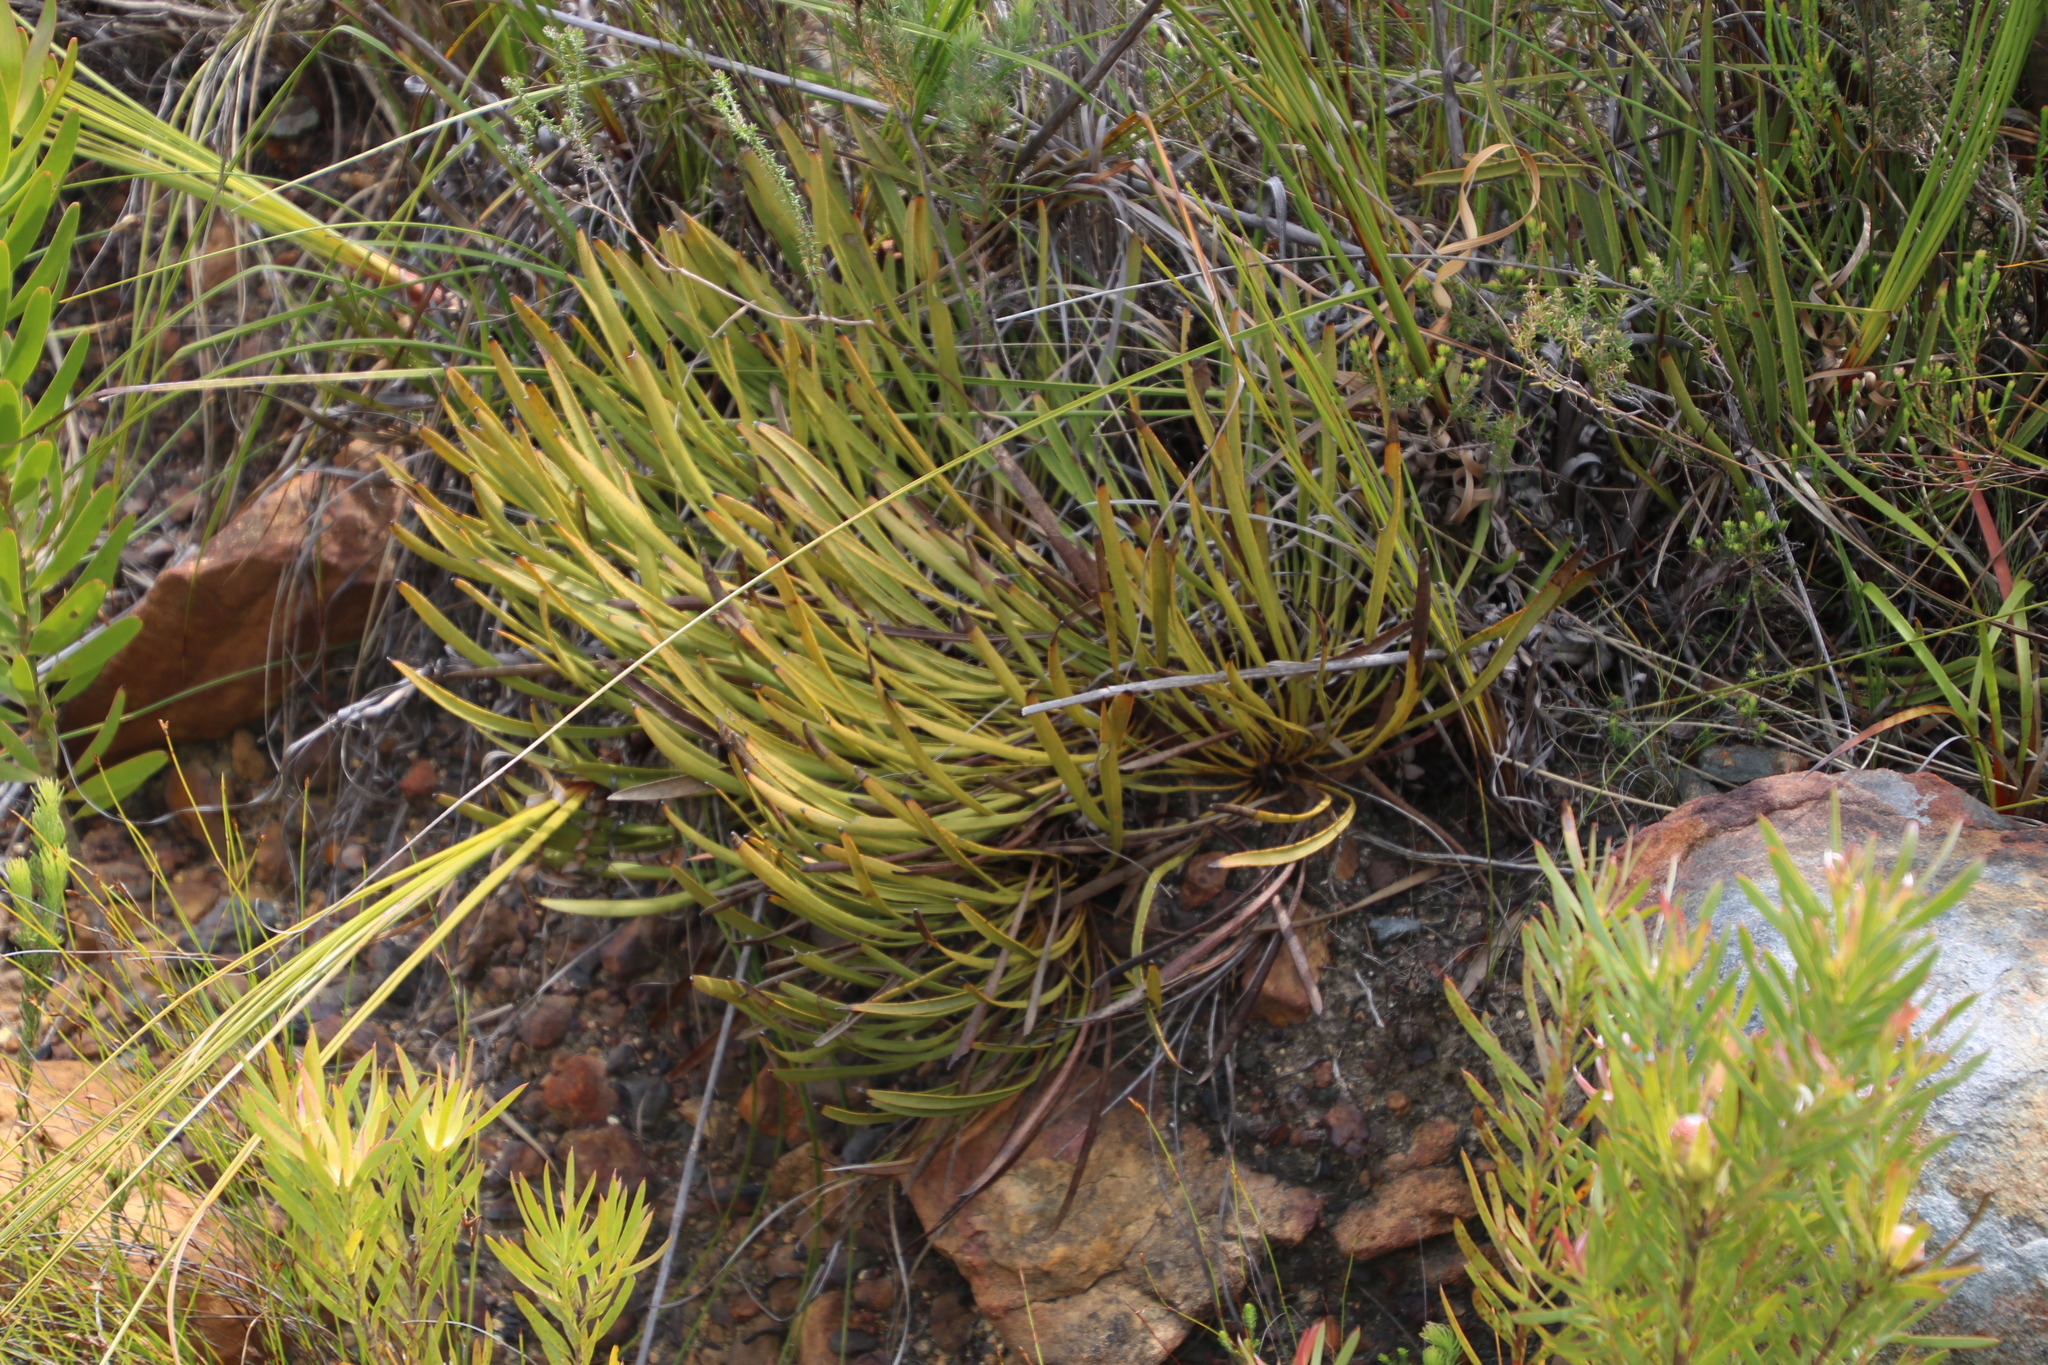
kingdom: Plantae
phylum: Tracheophyta
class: Magnoliopsida
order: Proteales
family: Proteaceae
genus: Protea
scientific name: Protea scabra
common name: Sandpaper-leaf sugarbush
